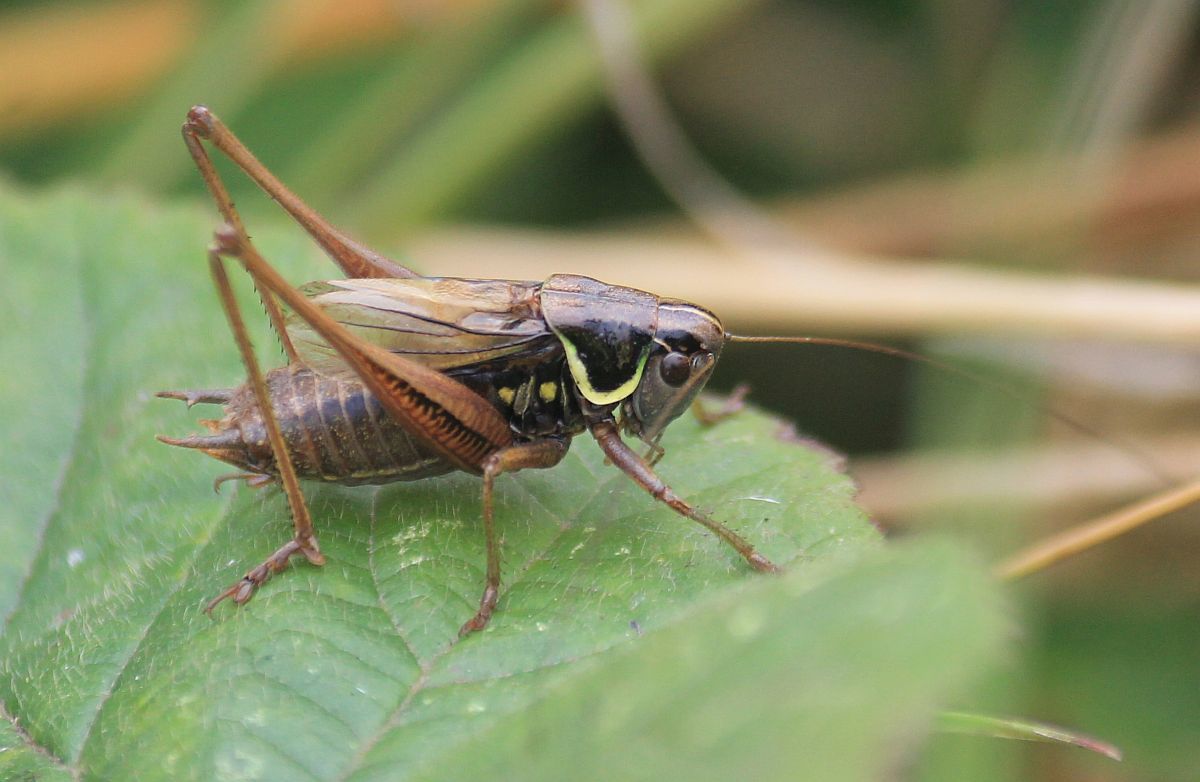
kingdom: Animalia
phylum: Arthropoda
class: Insecta
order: Orthoptera
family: Tettigoniidae
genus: Roeseliana
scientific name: Roeseliana roeselii
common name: Roesel's bush cricket
